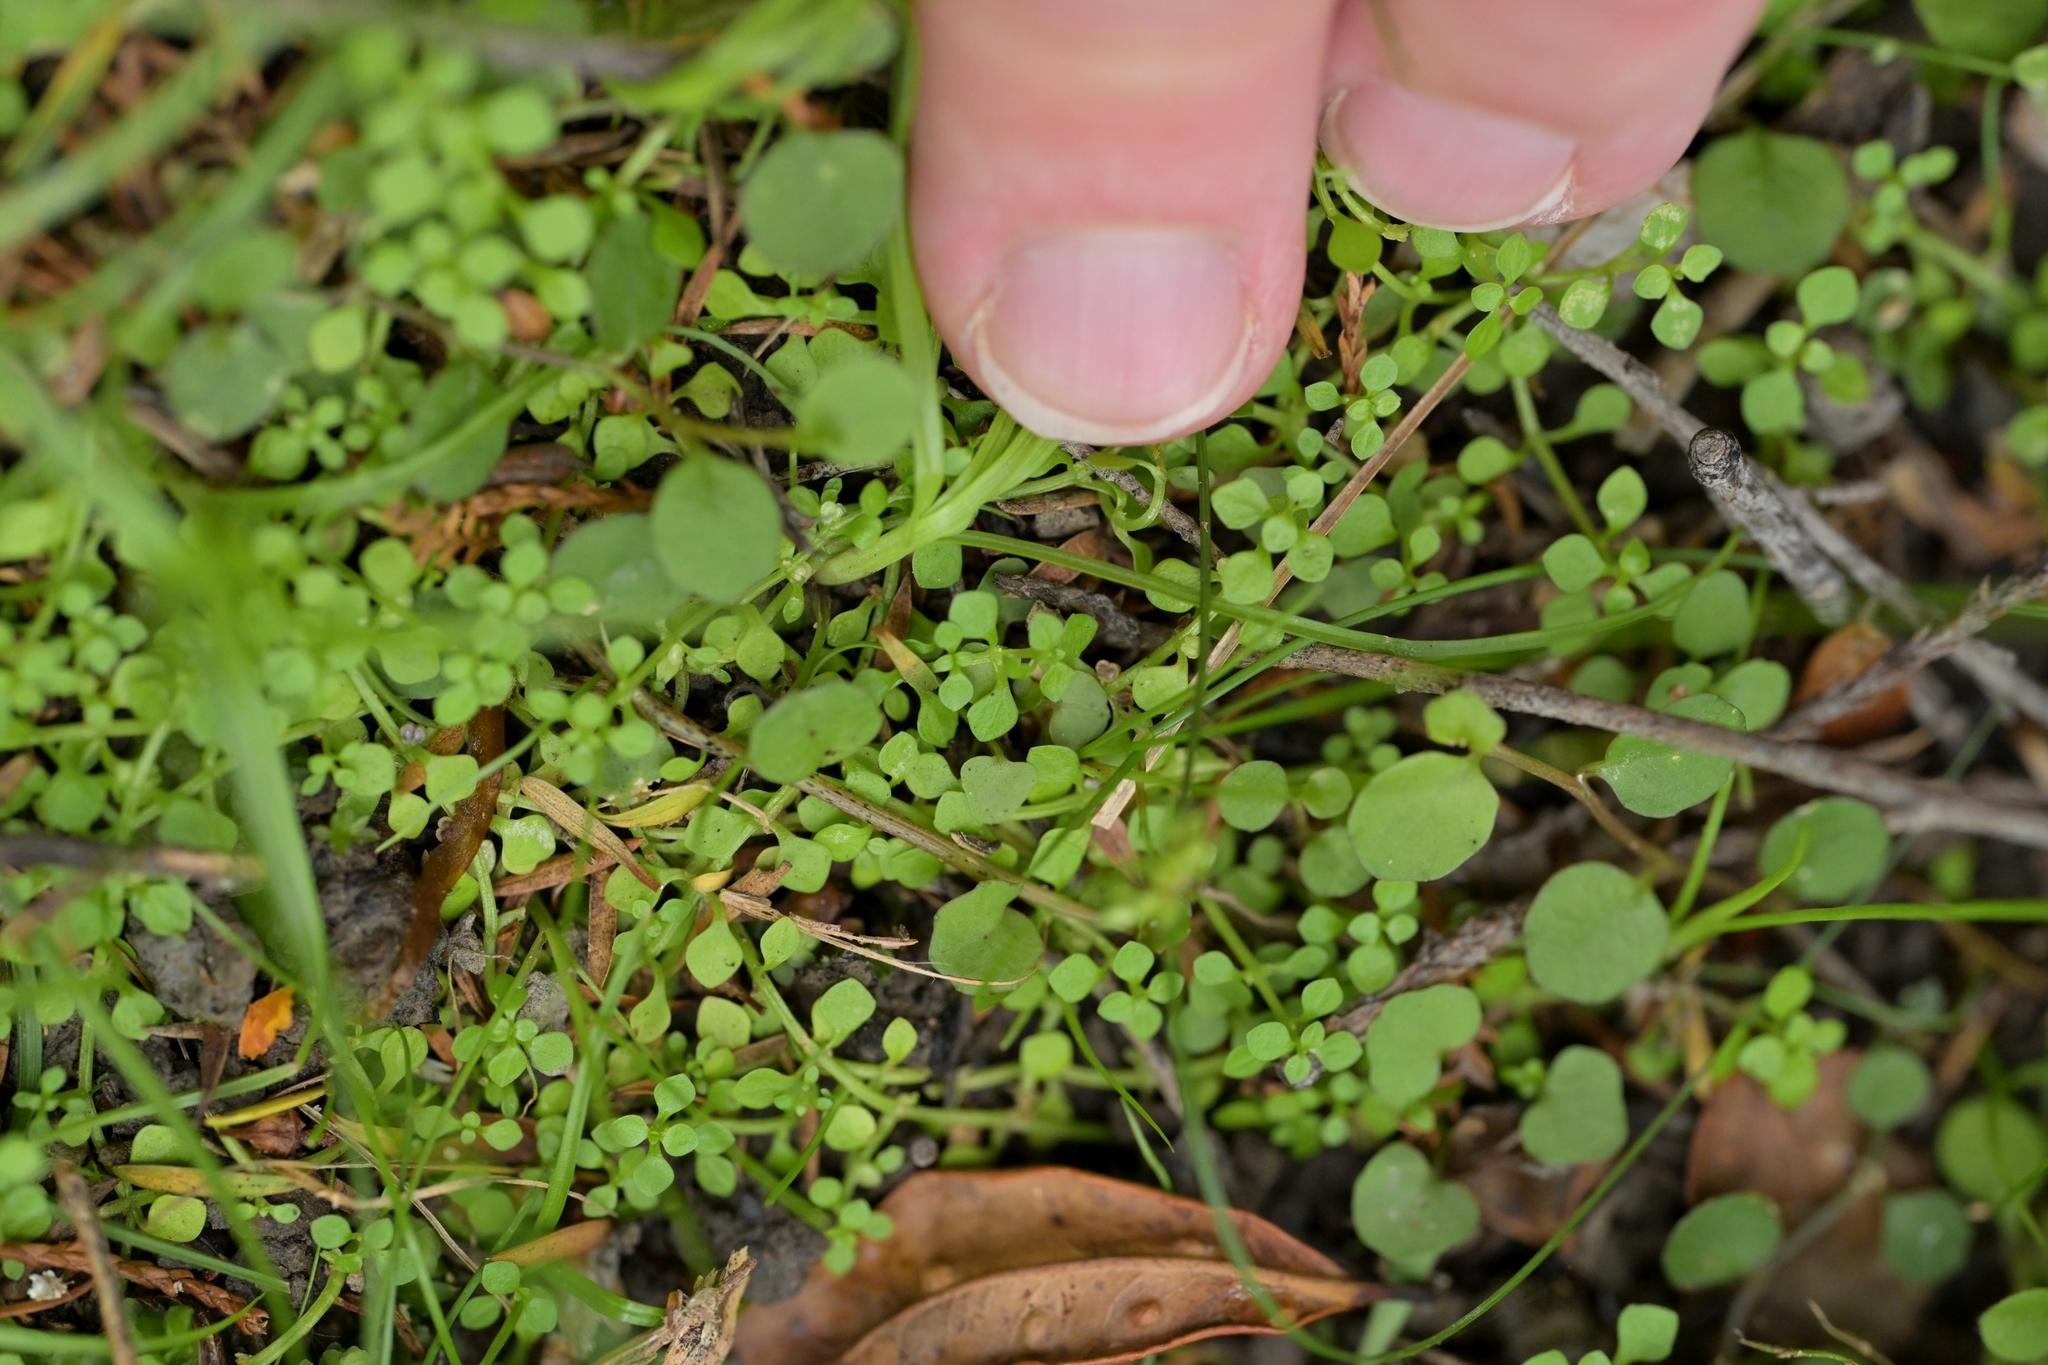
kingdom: Plantae
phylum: Tracheophyta
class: Magnoliopsida
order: Lamiales
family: Plantaginaceae
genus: Callitriche
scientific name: Callitriche muelleri
